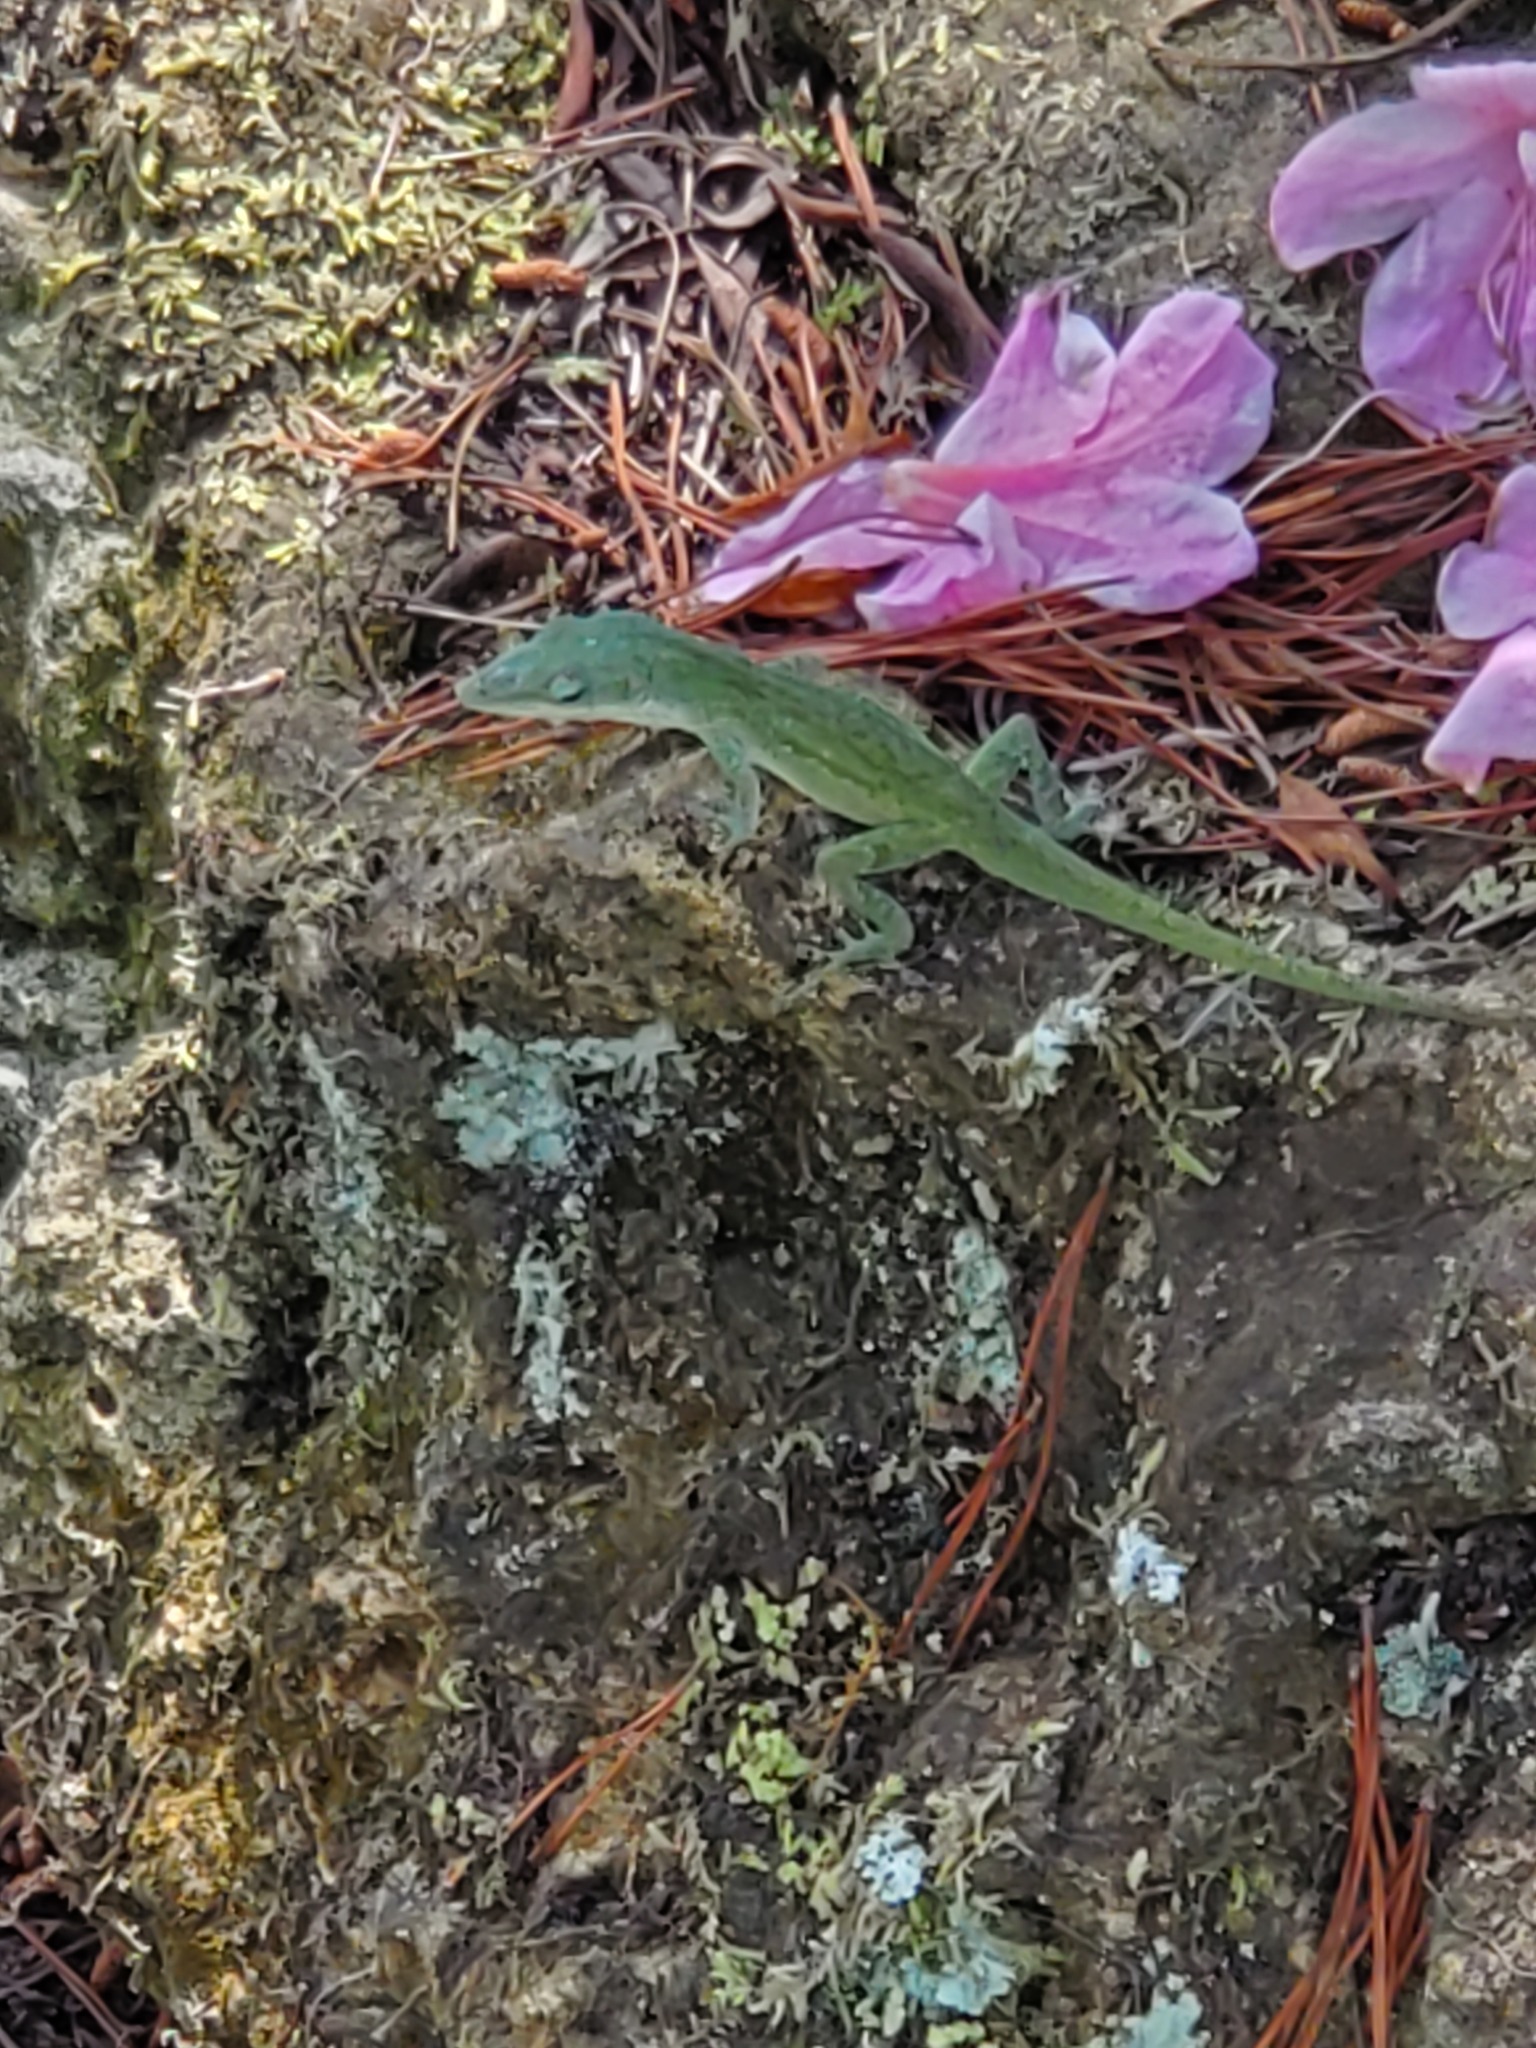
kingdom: Animalia
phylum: Chordata
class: Squamata
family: Dactyloidae
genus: Anolis
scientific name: Anolis carolinensis
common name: Green anole
